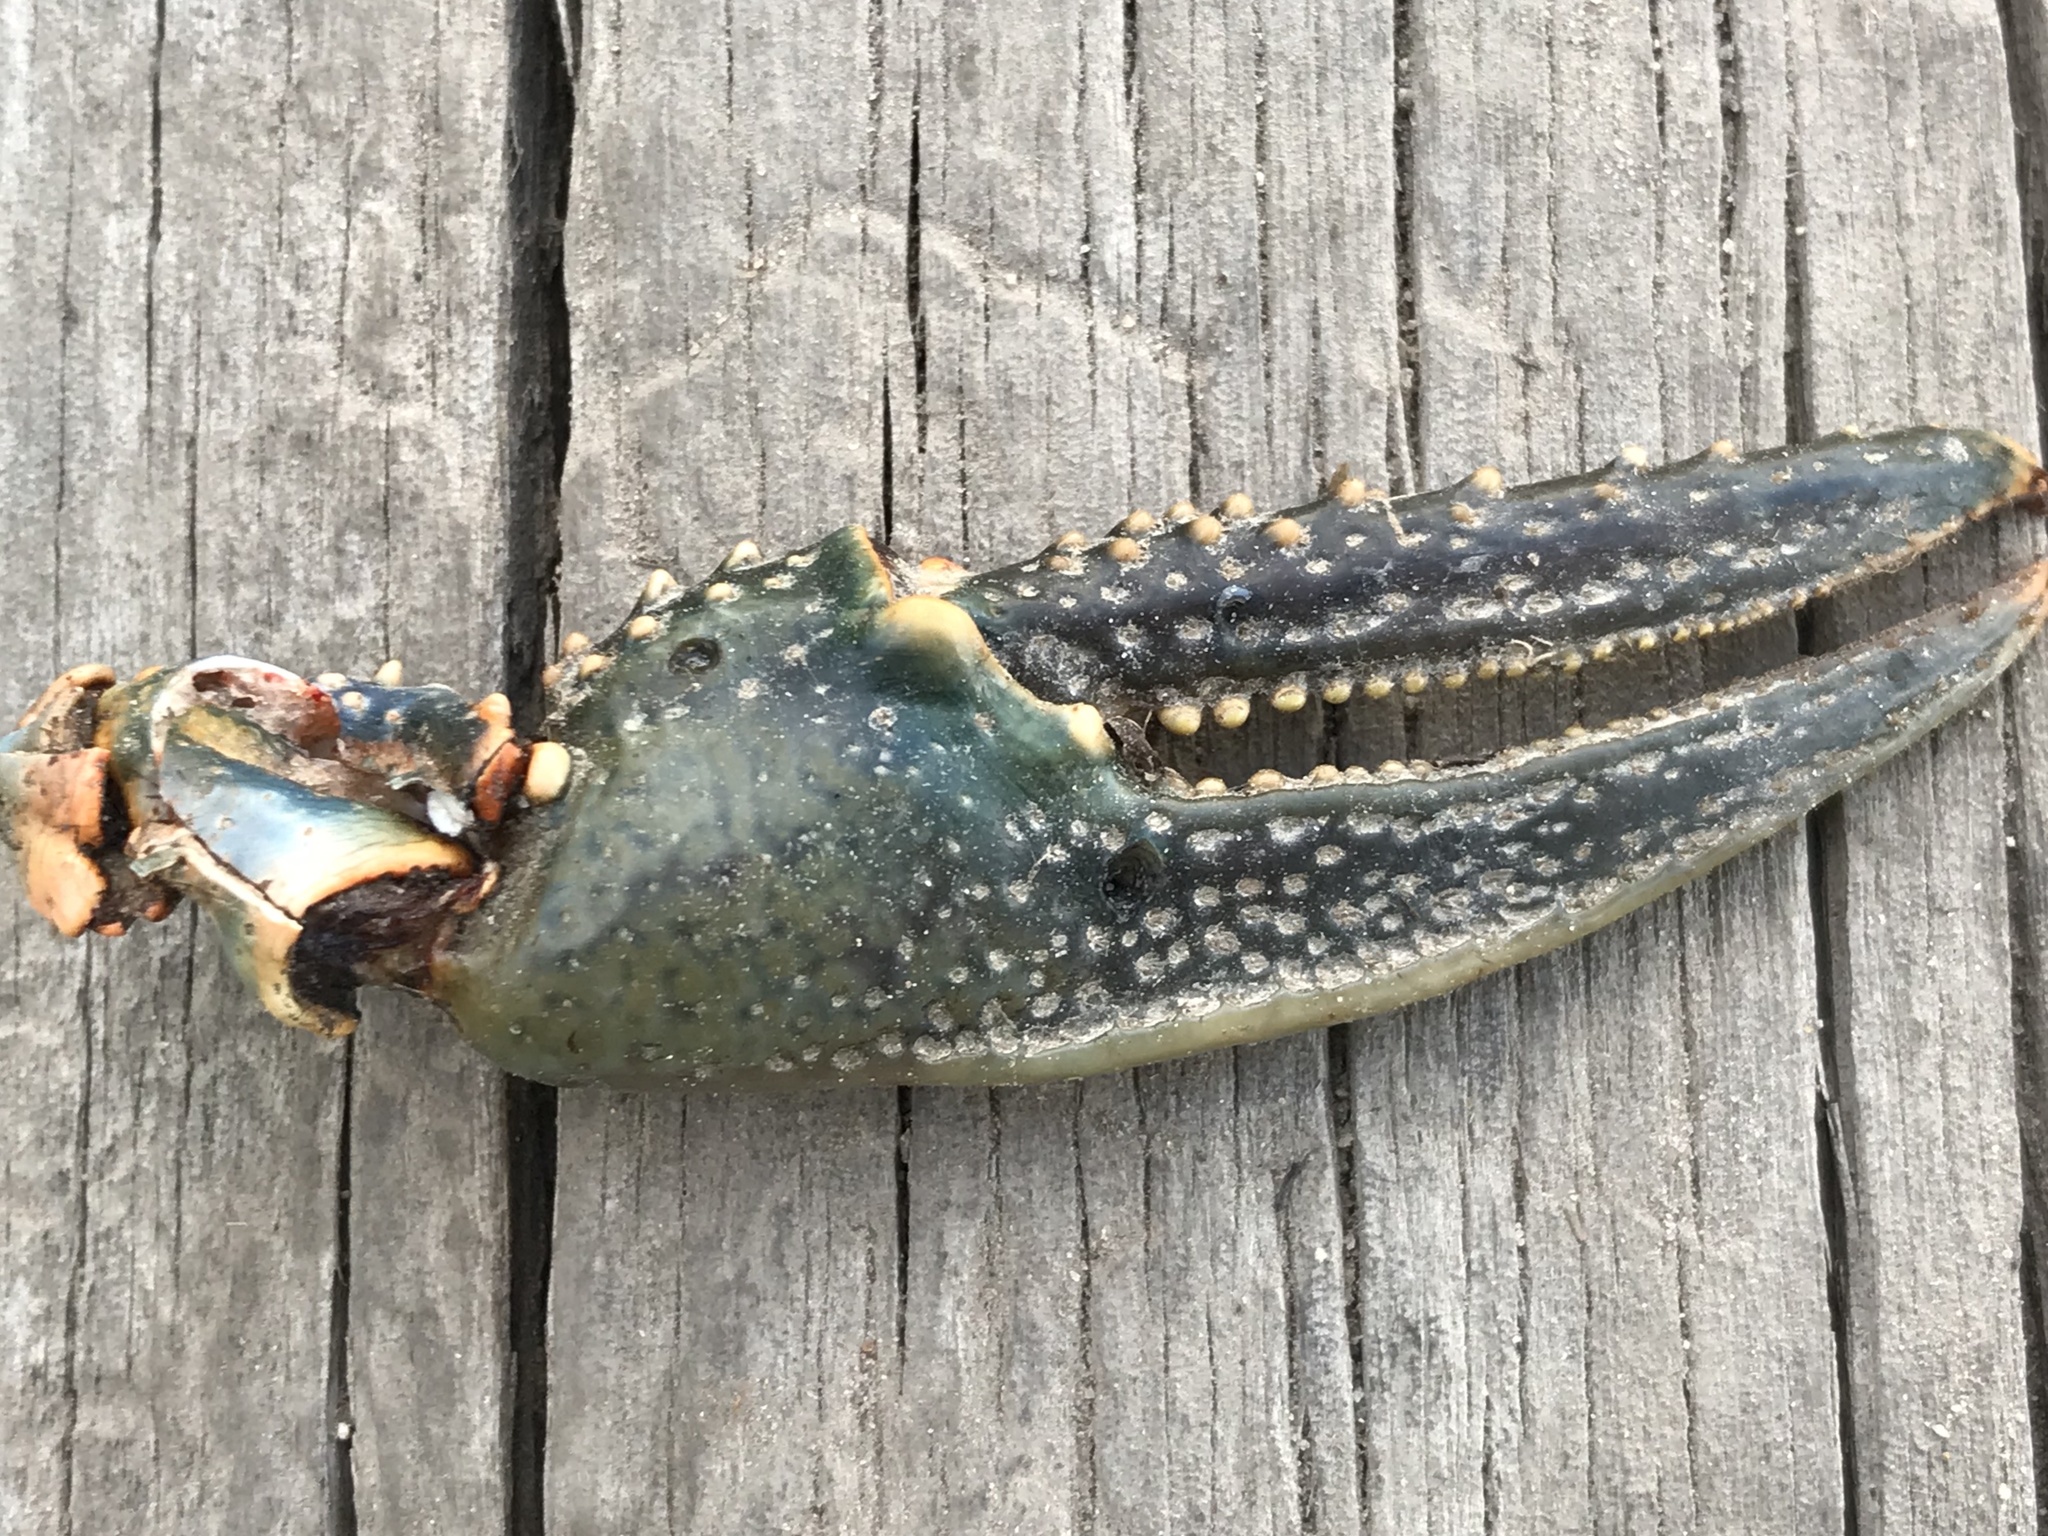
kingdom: Animalia
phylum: Arthropoda
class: Malacostraca
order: Decapoda
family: Cambaridae
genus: Faxonius
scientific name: Faxonius virilis
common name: Virile crayfish
